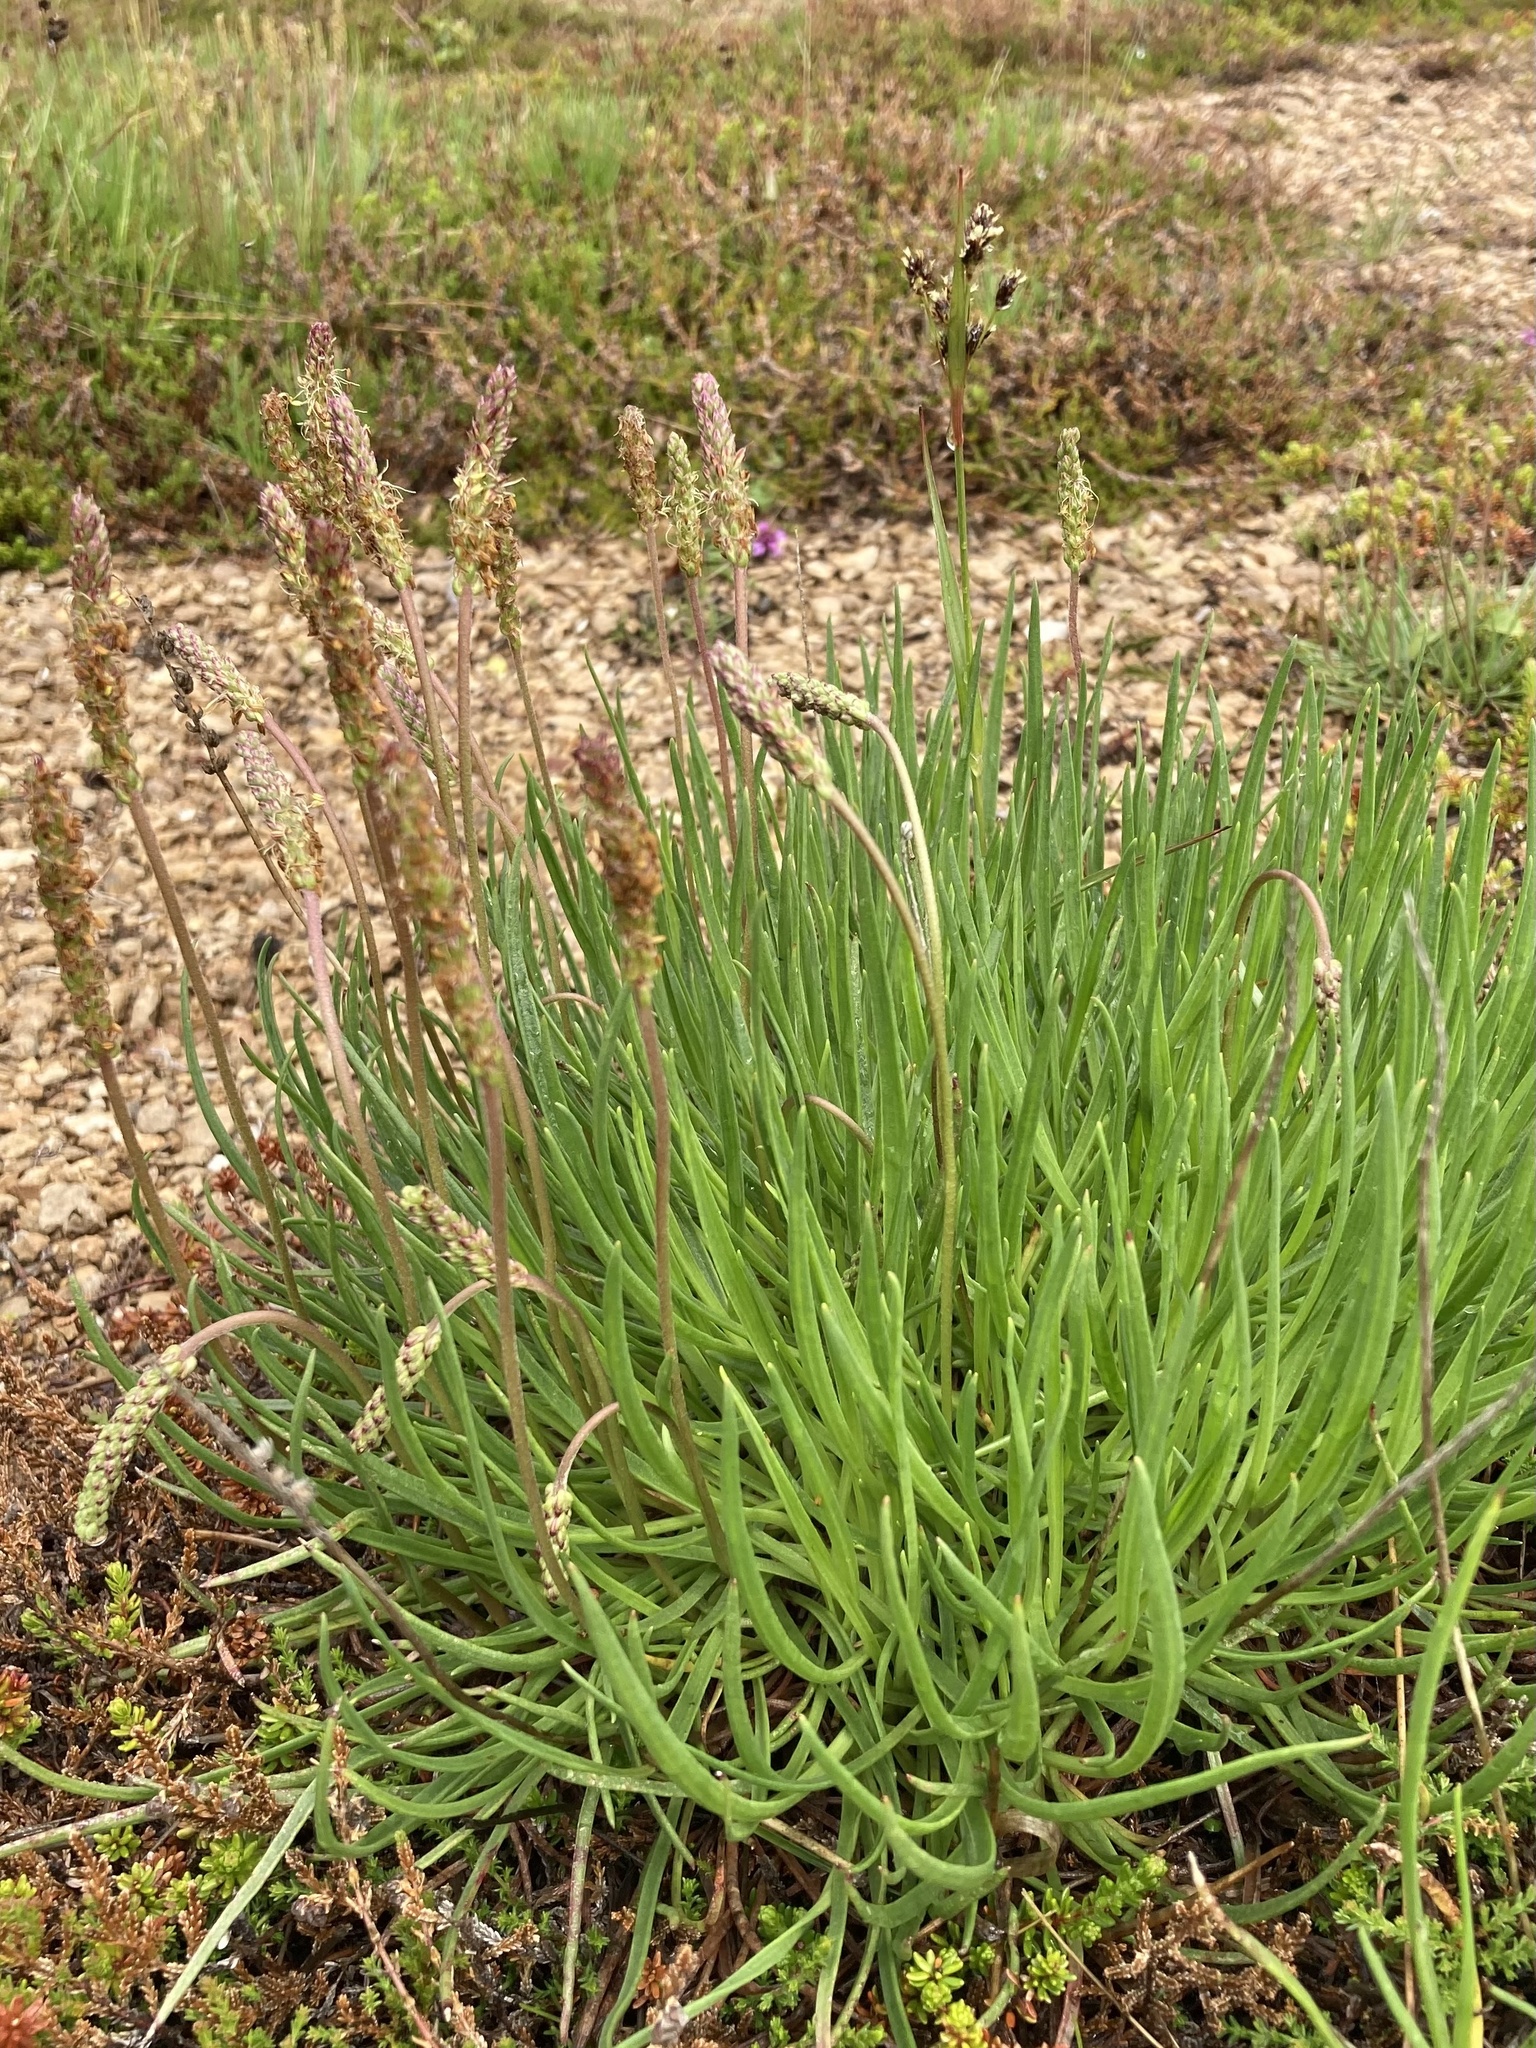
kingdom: Plantae
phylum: Tracheophyta
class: Magnoliopsida
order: Lamiales
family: Plantaginaceae
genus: Plantago
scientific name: Plantago maritima
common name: Sea plantain
